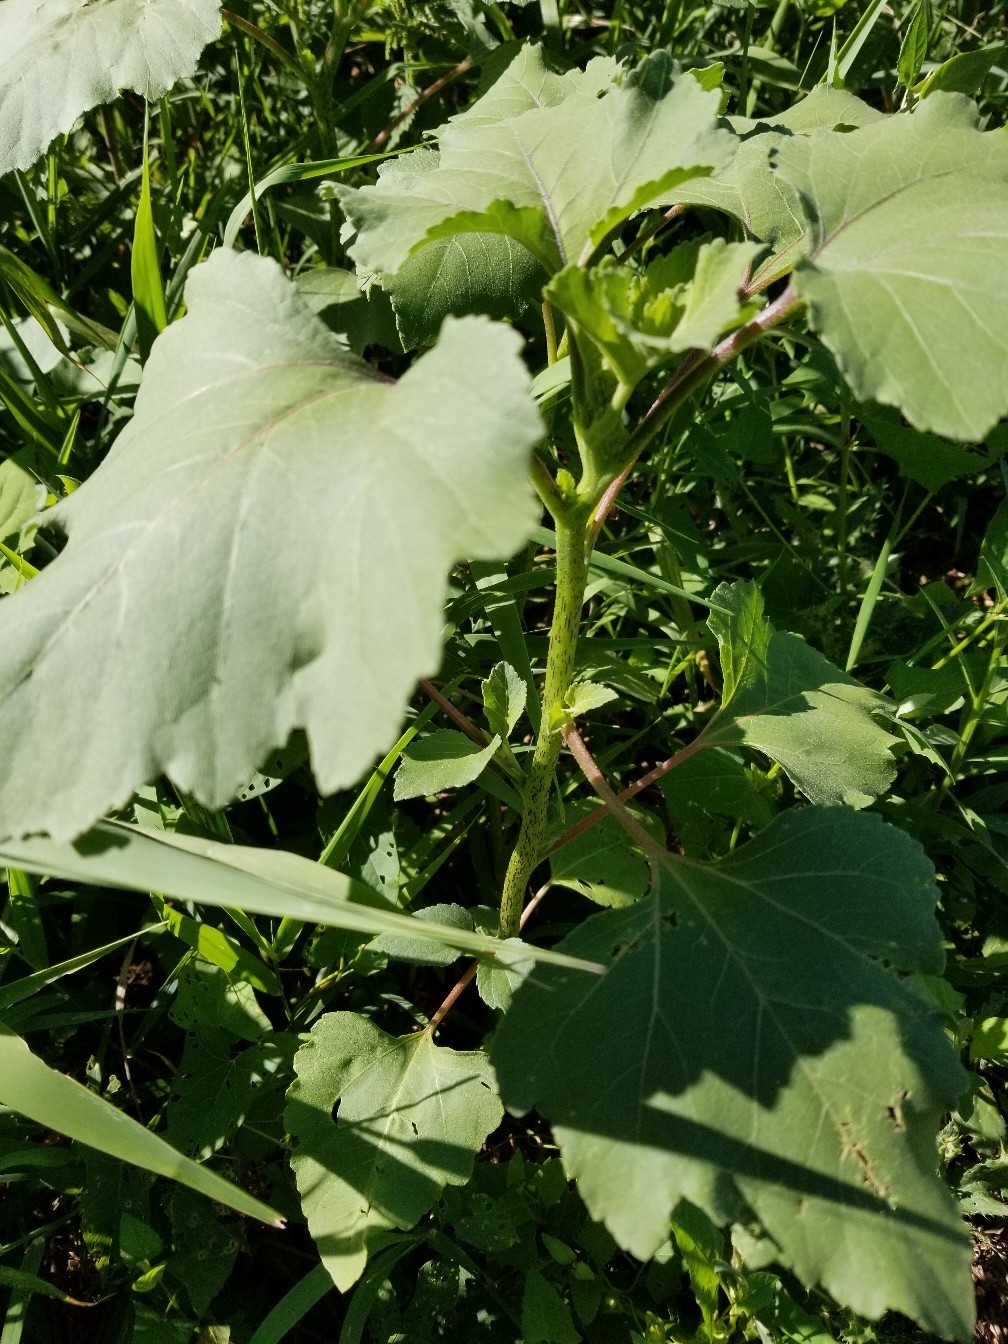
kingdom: Plantae
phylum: Tracheophyta
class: Magnoliopsida
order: Asterales
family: Asteraceae
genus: Xanthium
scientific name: Xanthium strumarium
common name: Rough cocklebur
